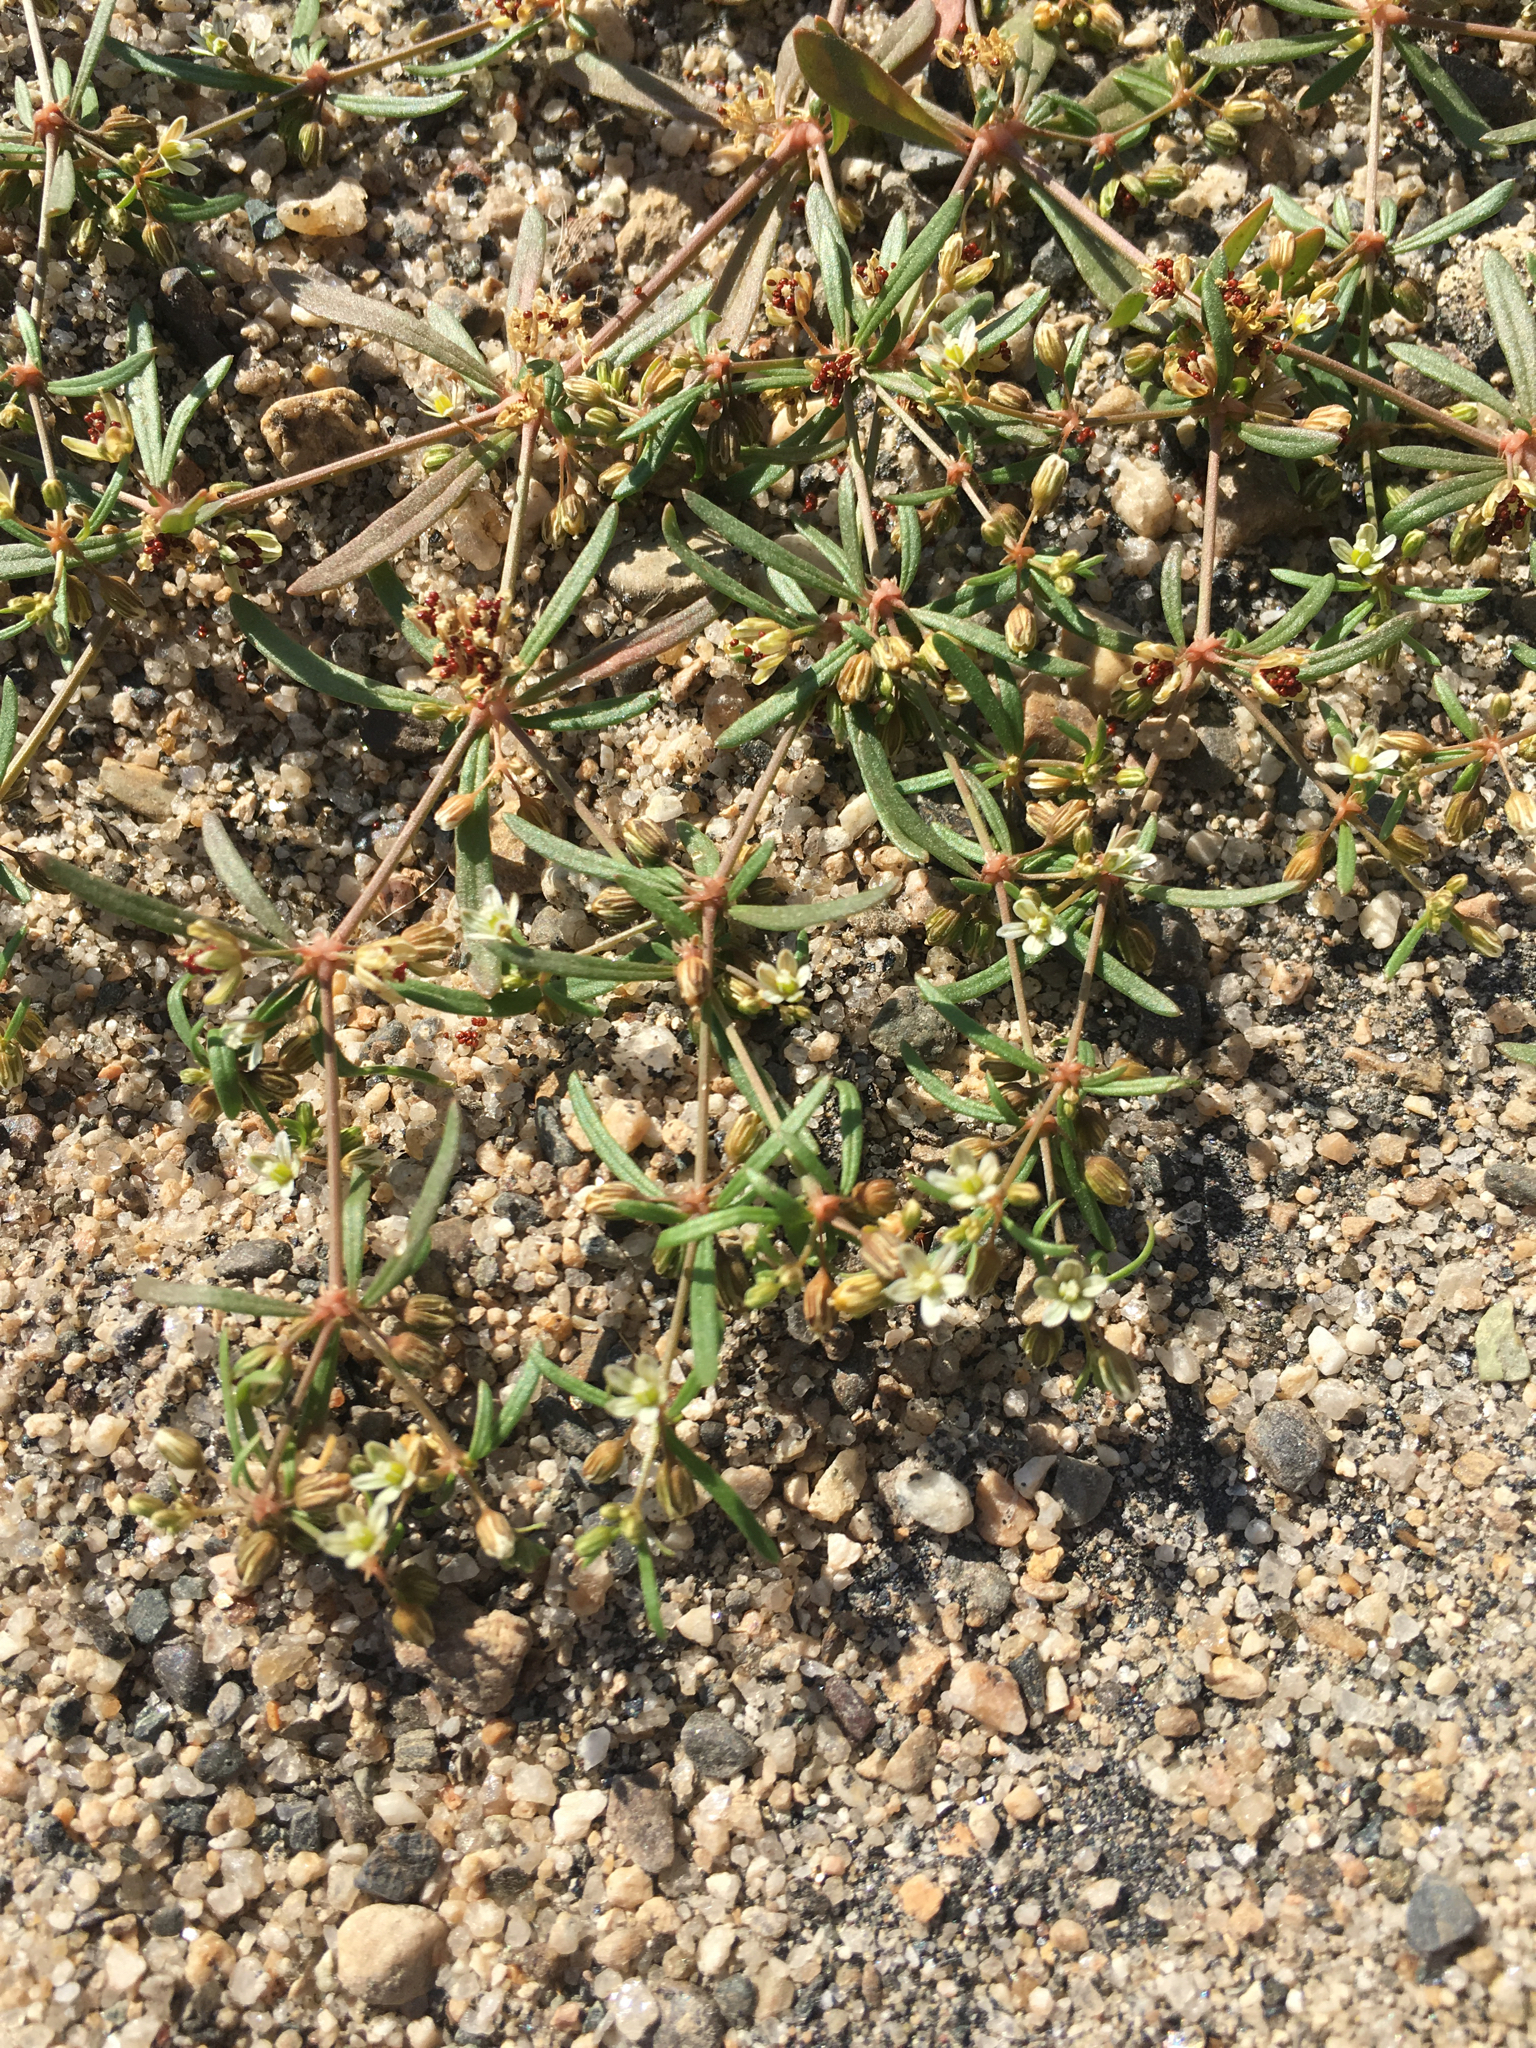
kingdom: Plantae
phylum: Tracheophyta
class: Magnoliopsida
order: Caryophyllales
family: Molluginaceae
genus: Mollugo
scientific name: Mollugo verticillata
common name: Green carpetweed
